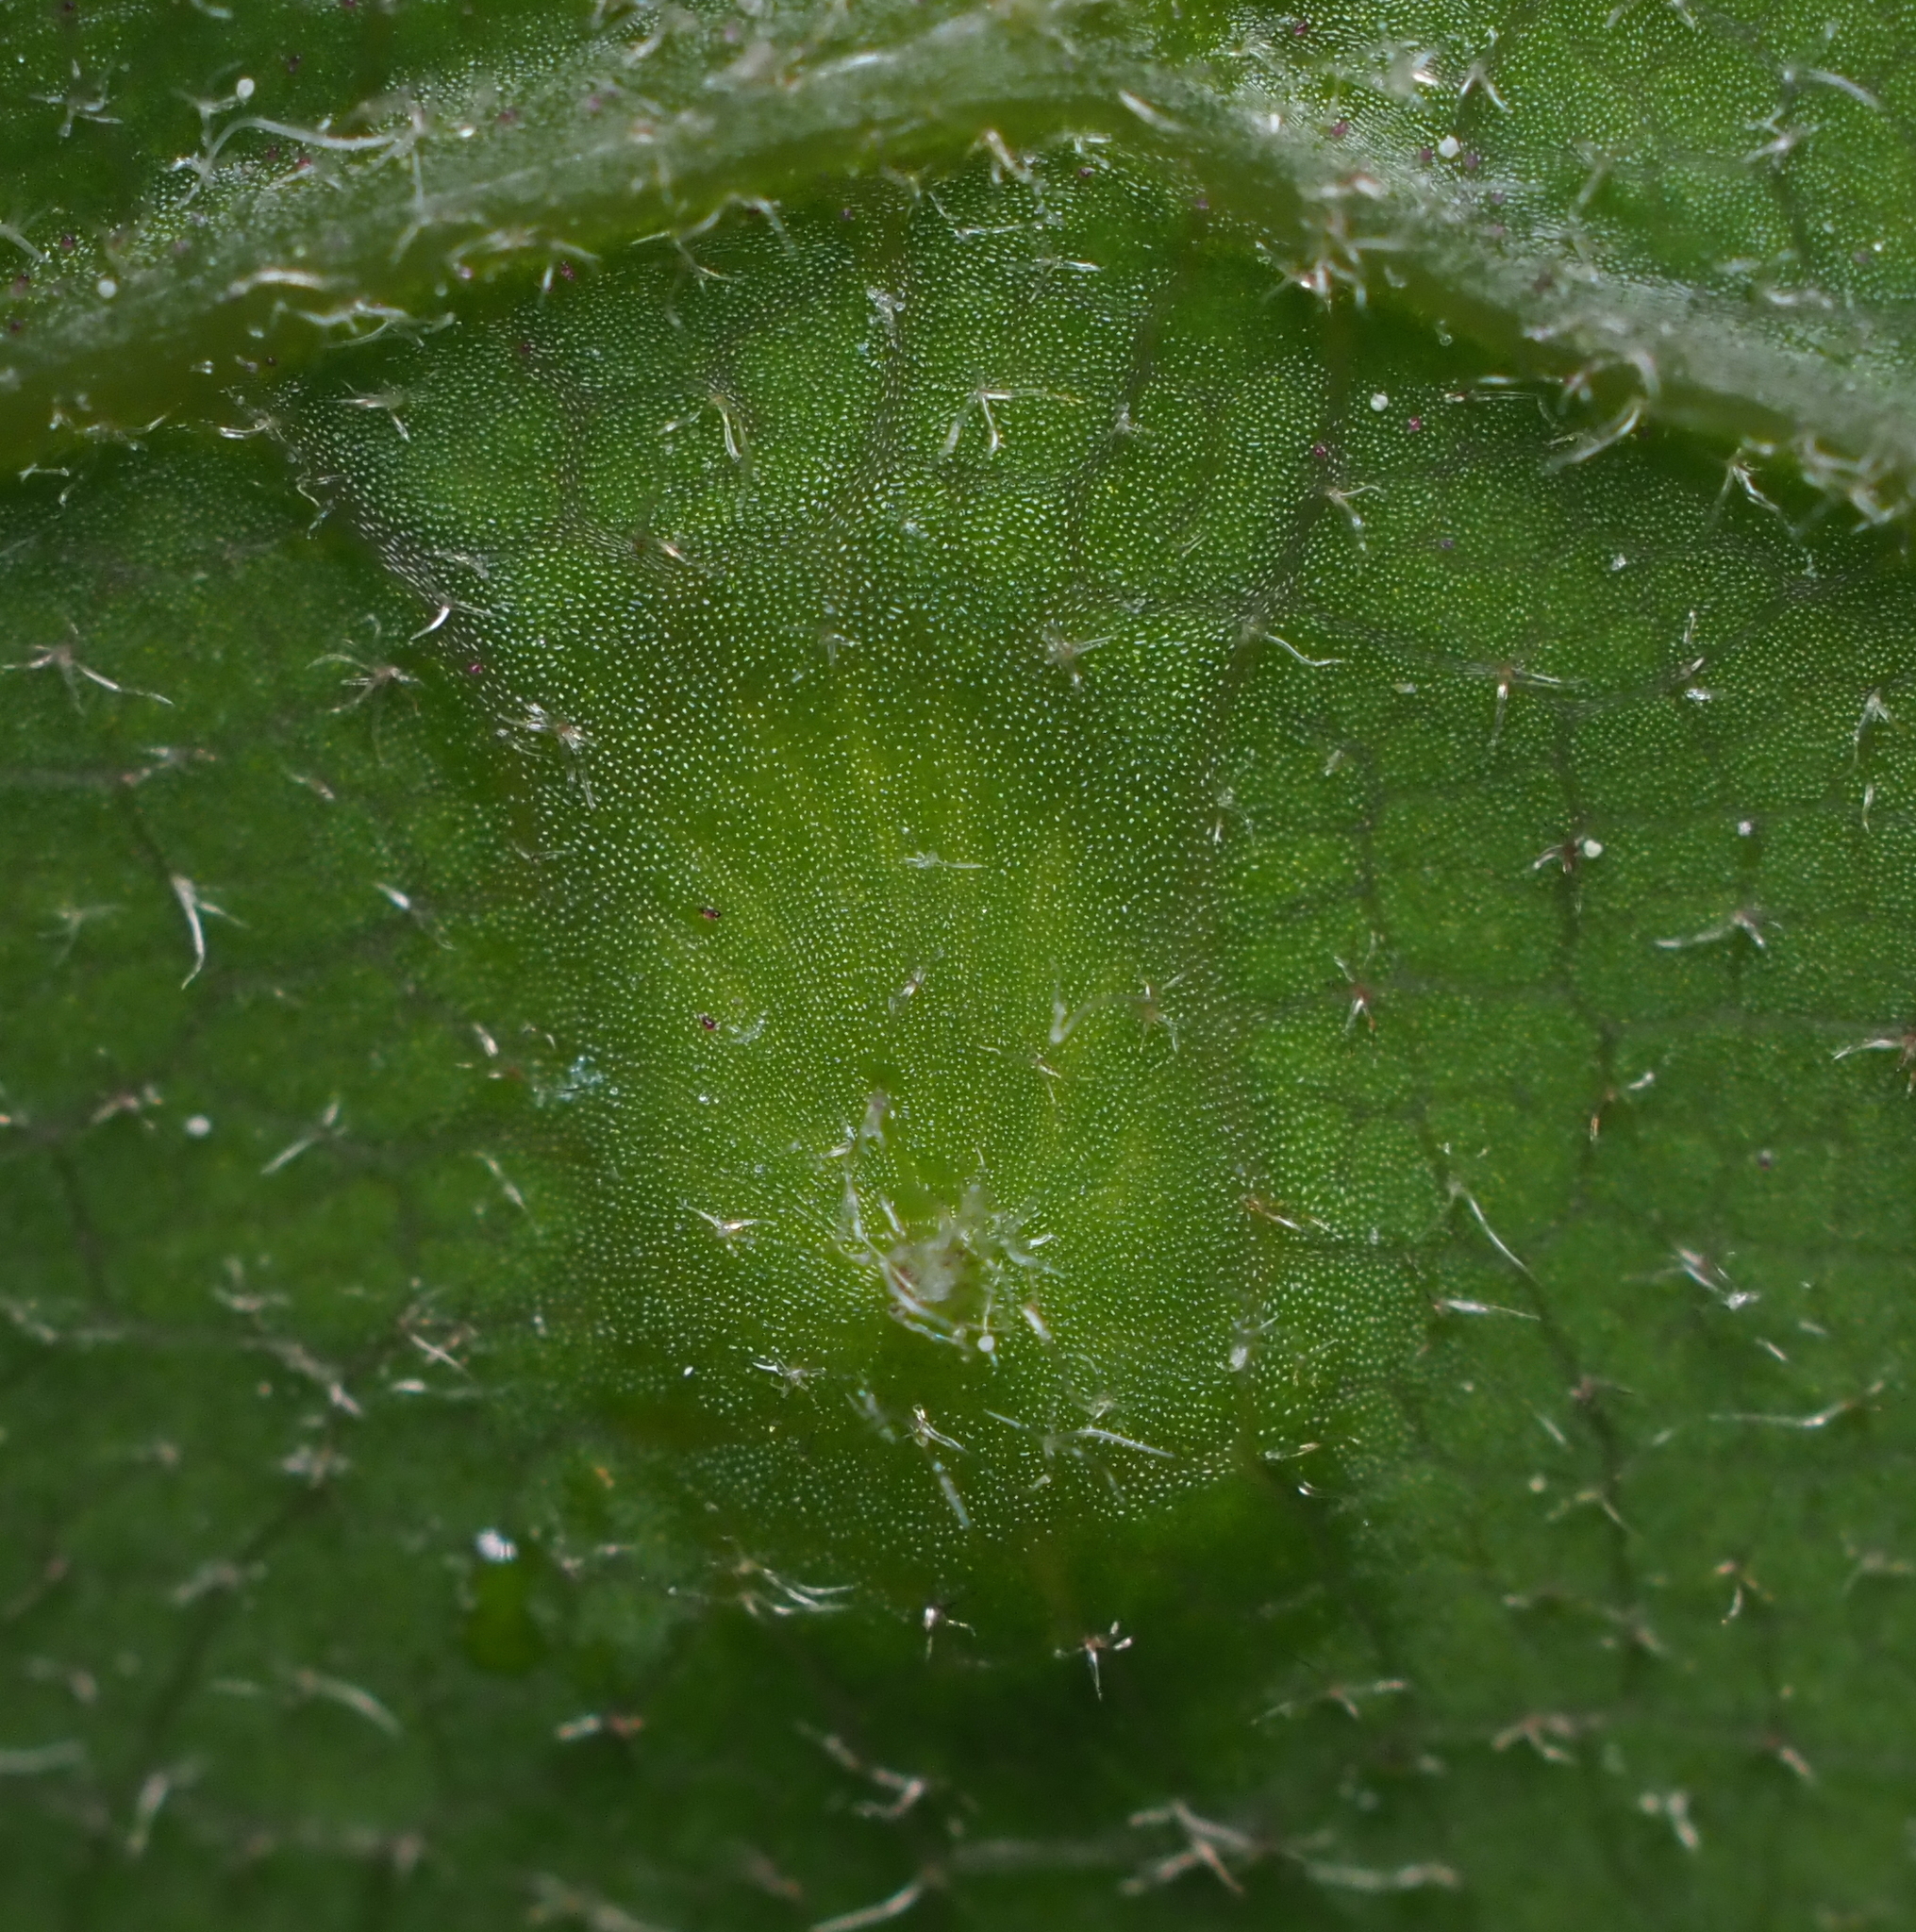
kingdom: Animalia
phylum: Arthropoda
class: Insecta
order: Hymenoptera
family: Cynipidae
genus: Dryocosmus
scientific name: Dryocosmus
